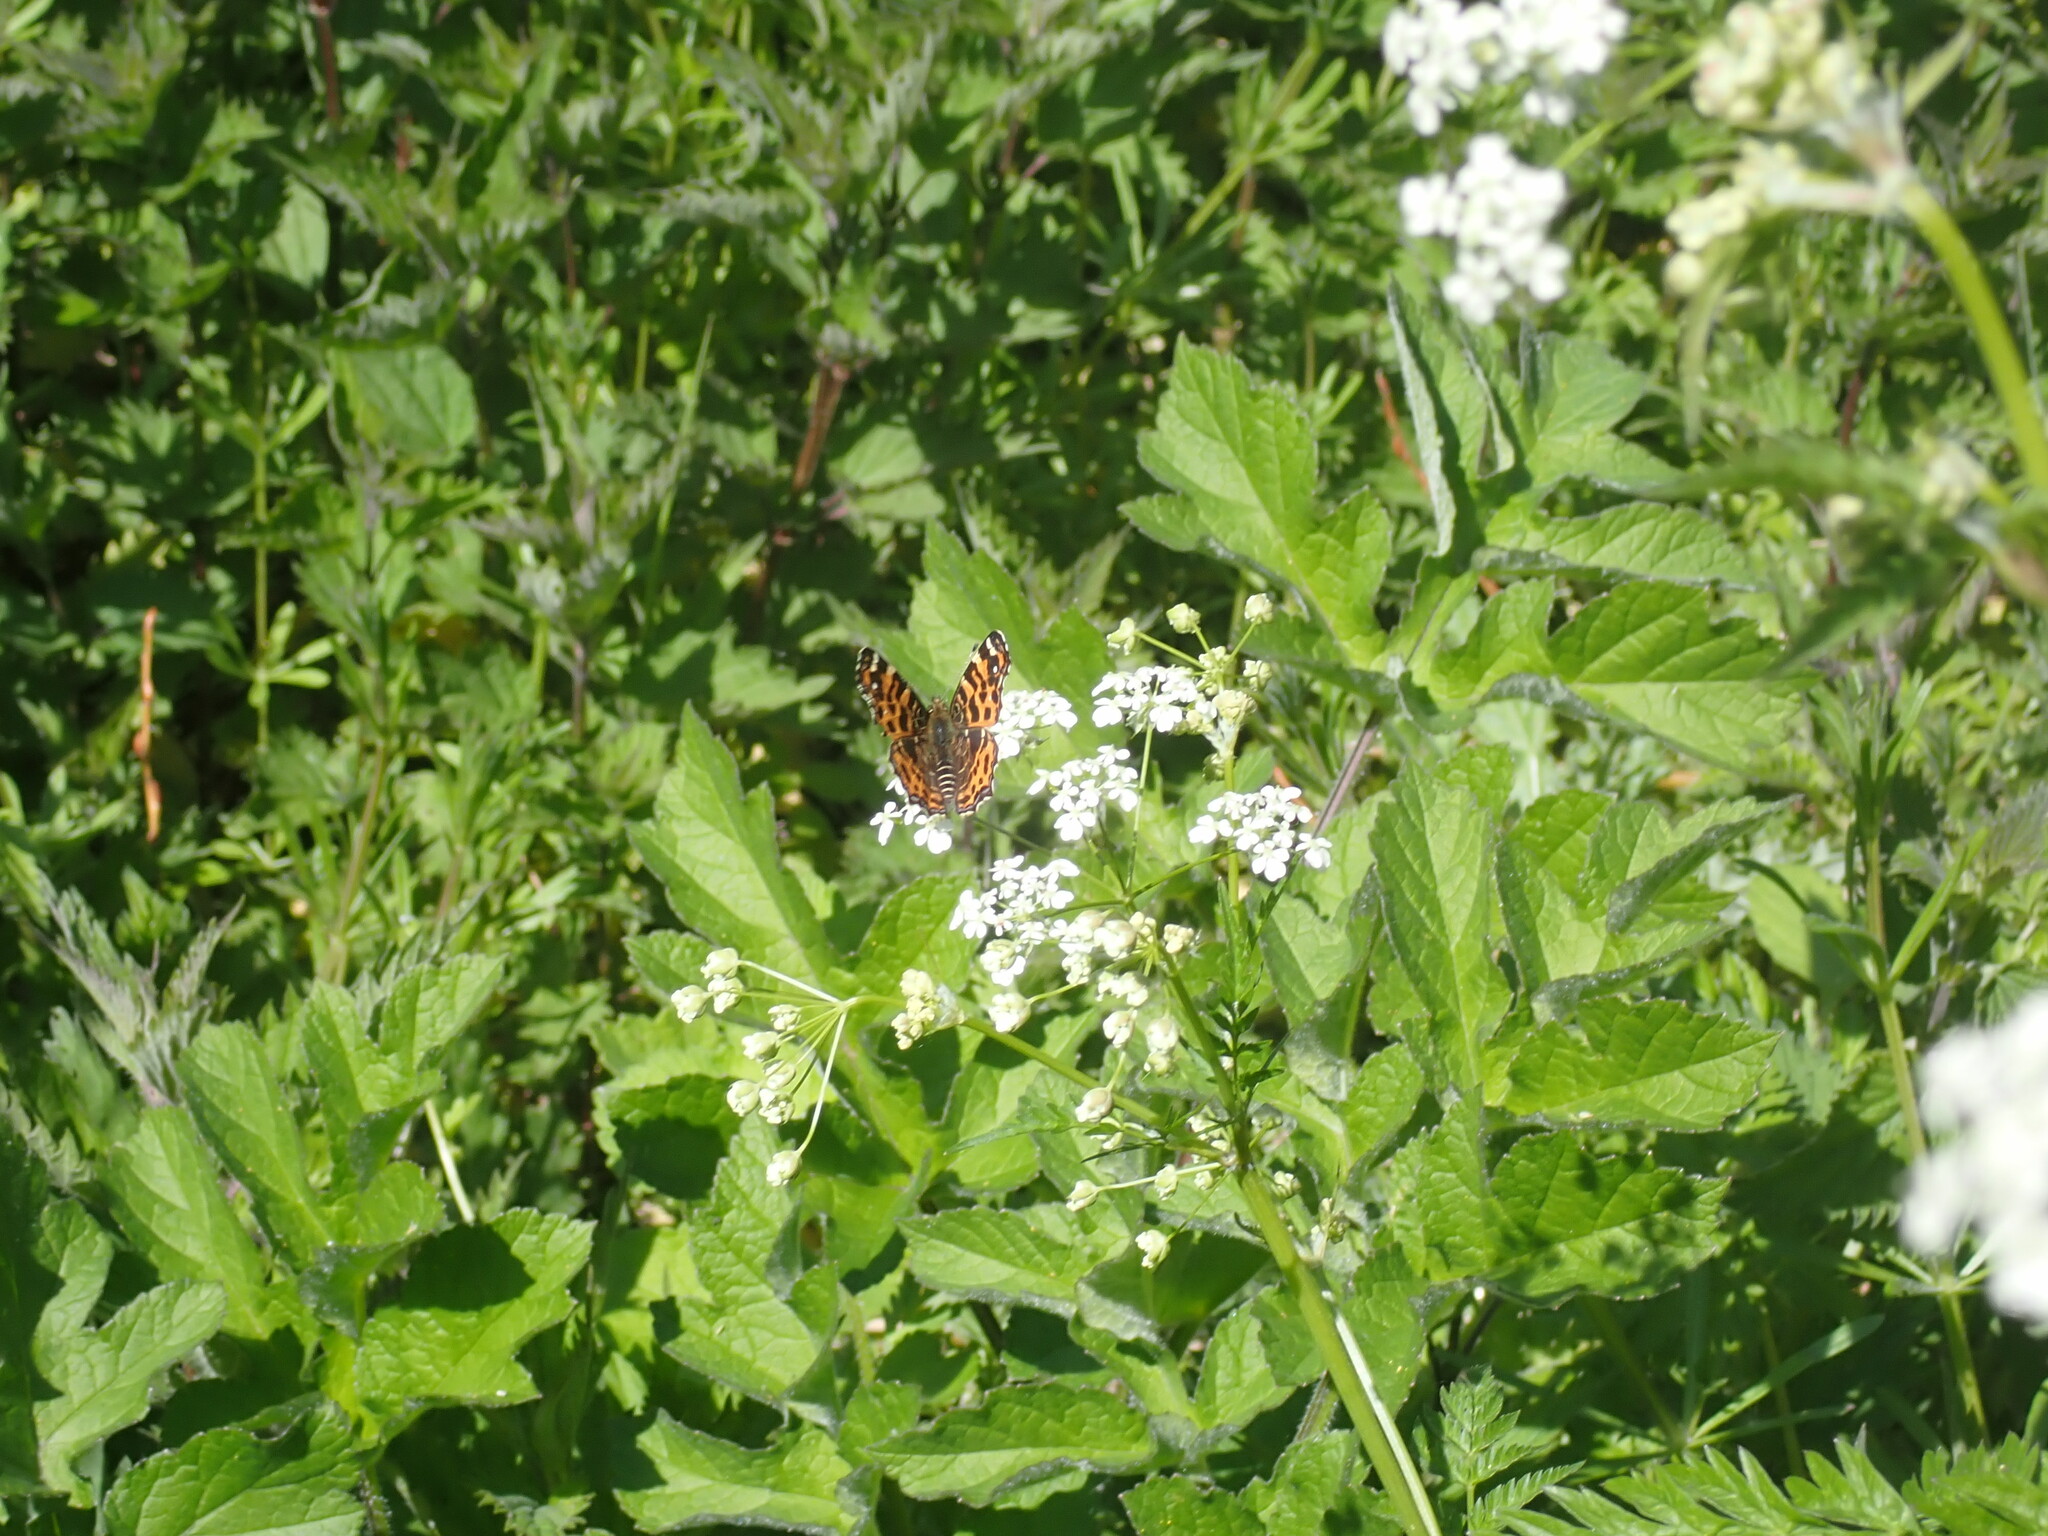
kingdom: Animalia
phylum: Arthropoda
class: Insecta
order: Lepidoptera
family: Nymphalidae
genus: Araschnia
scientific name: Araschnia levana
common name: Map butterfly
